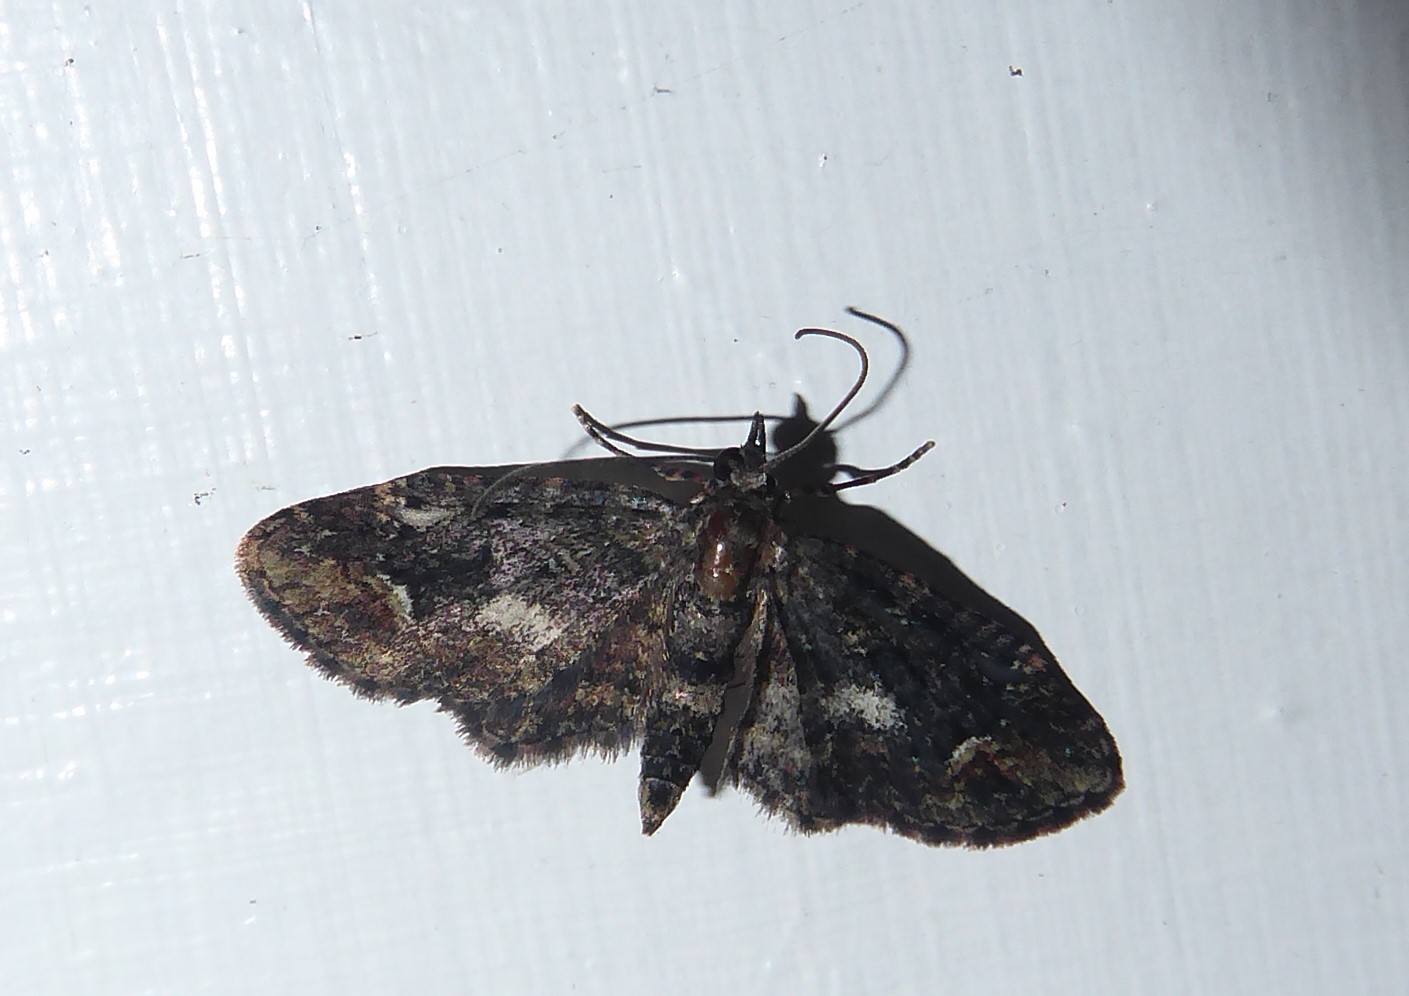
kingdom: Animalia
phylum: Arthropoda
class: Insecta
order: Lepidoptera
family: Geometridae
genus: Pasiphilodes
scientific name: Pasiphilodes testulata
